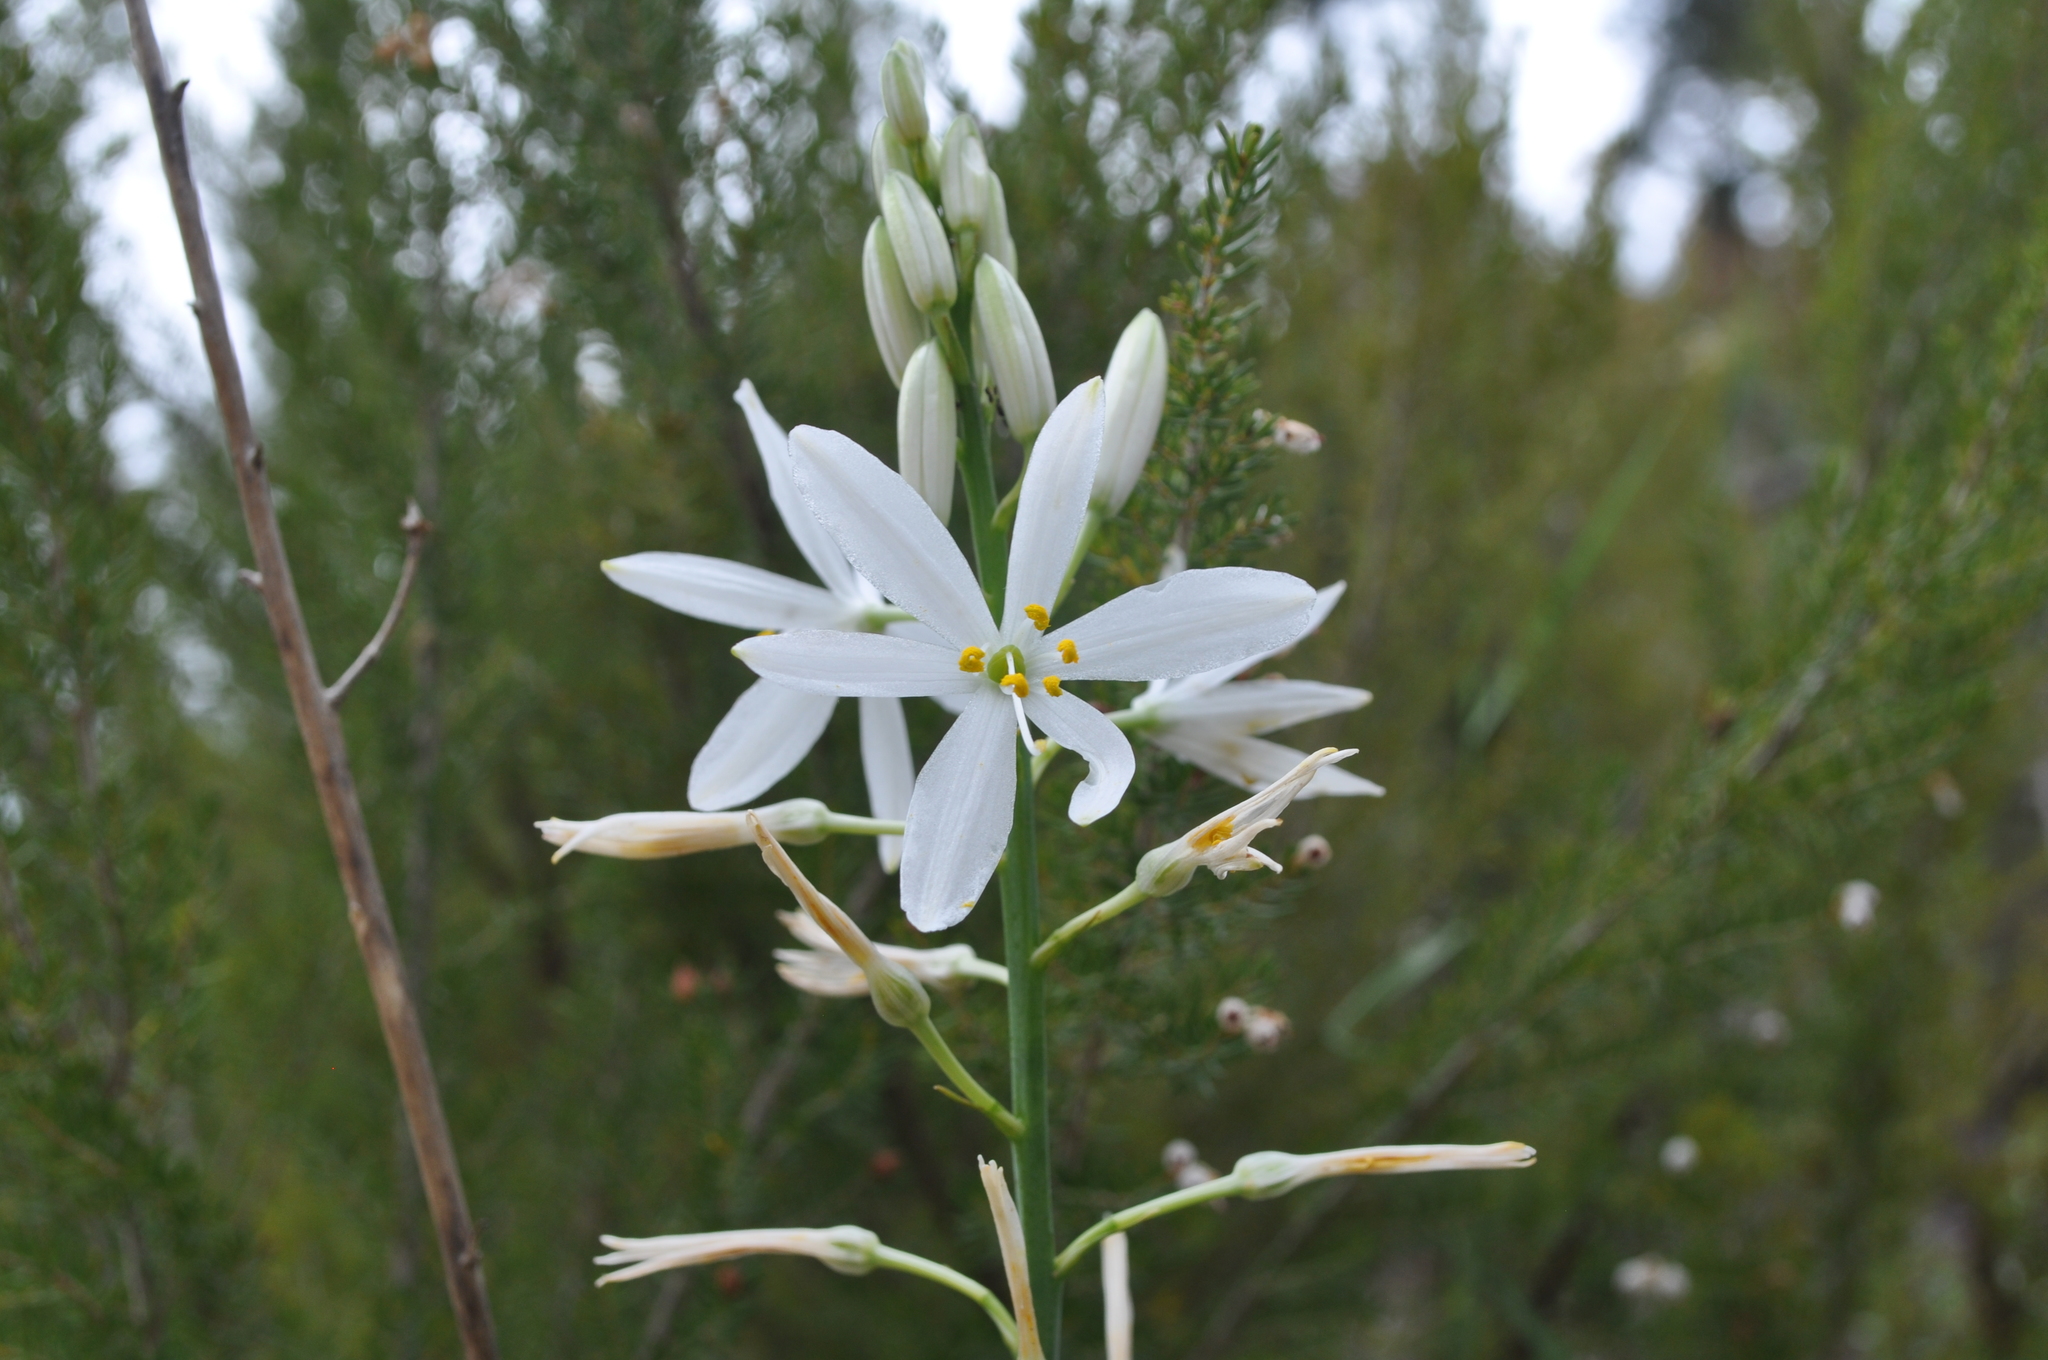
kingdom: Plantae
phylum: Tracheophyta
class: Liliopsida
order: Asparagales
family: Asparagaceae
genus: Anthericum
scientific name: Anthericum liliago
